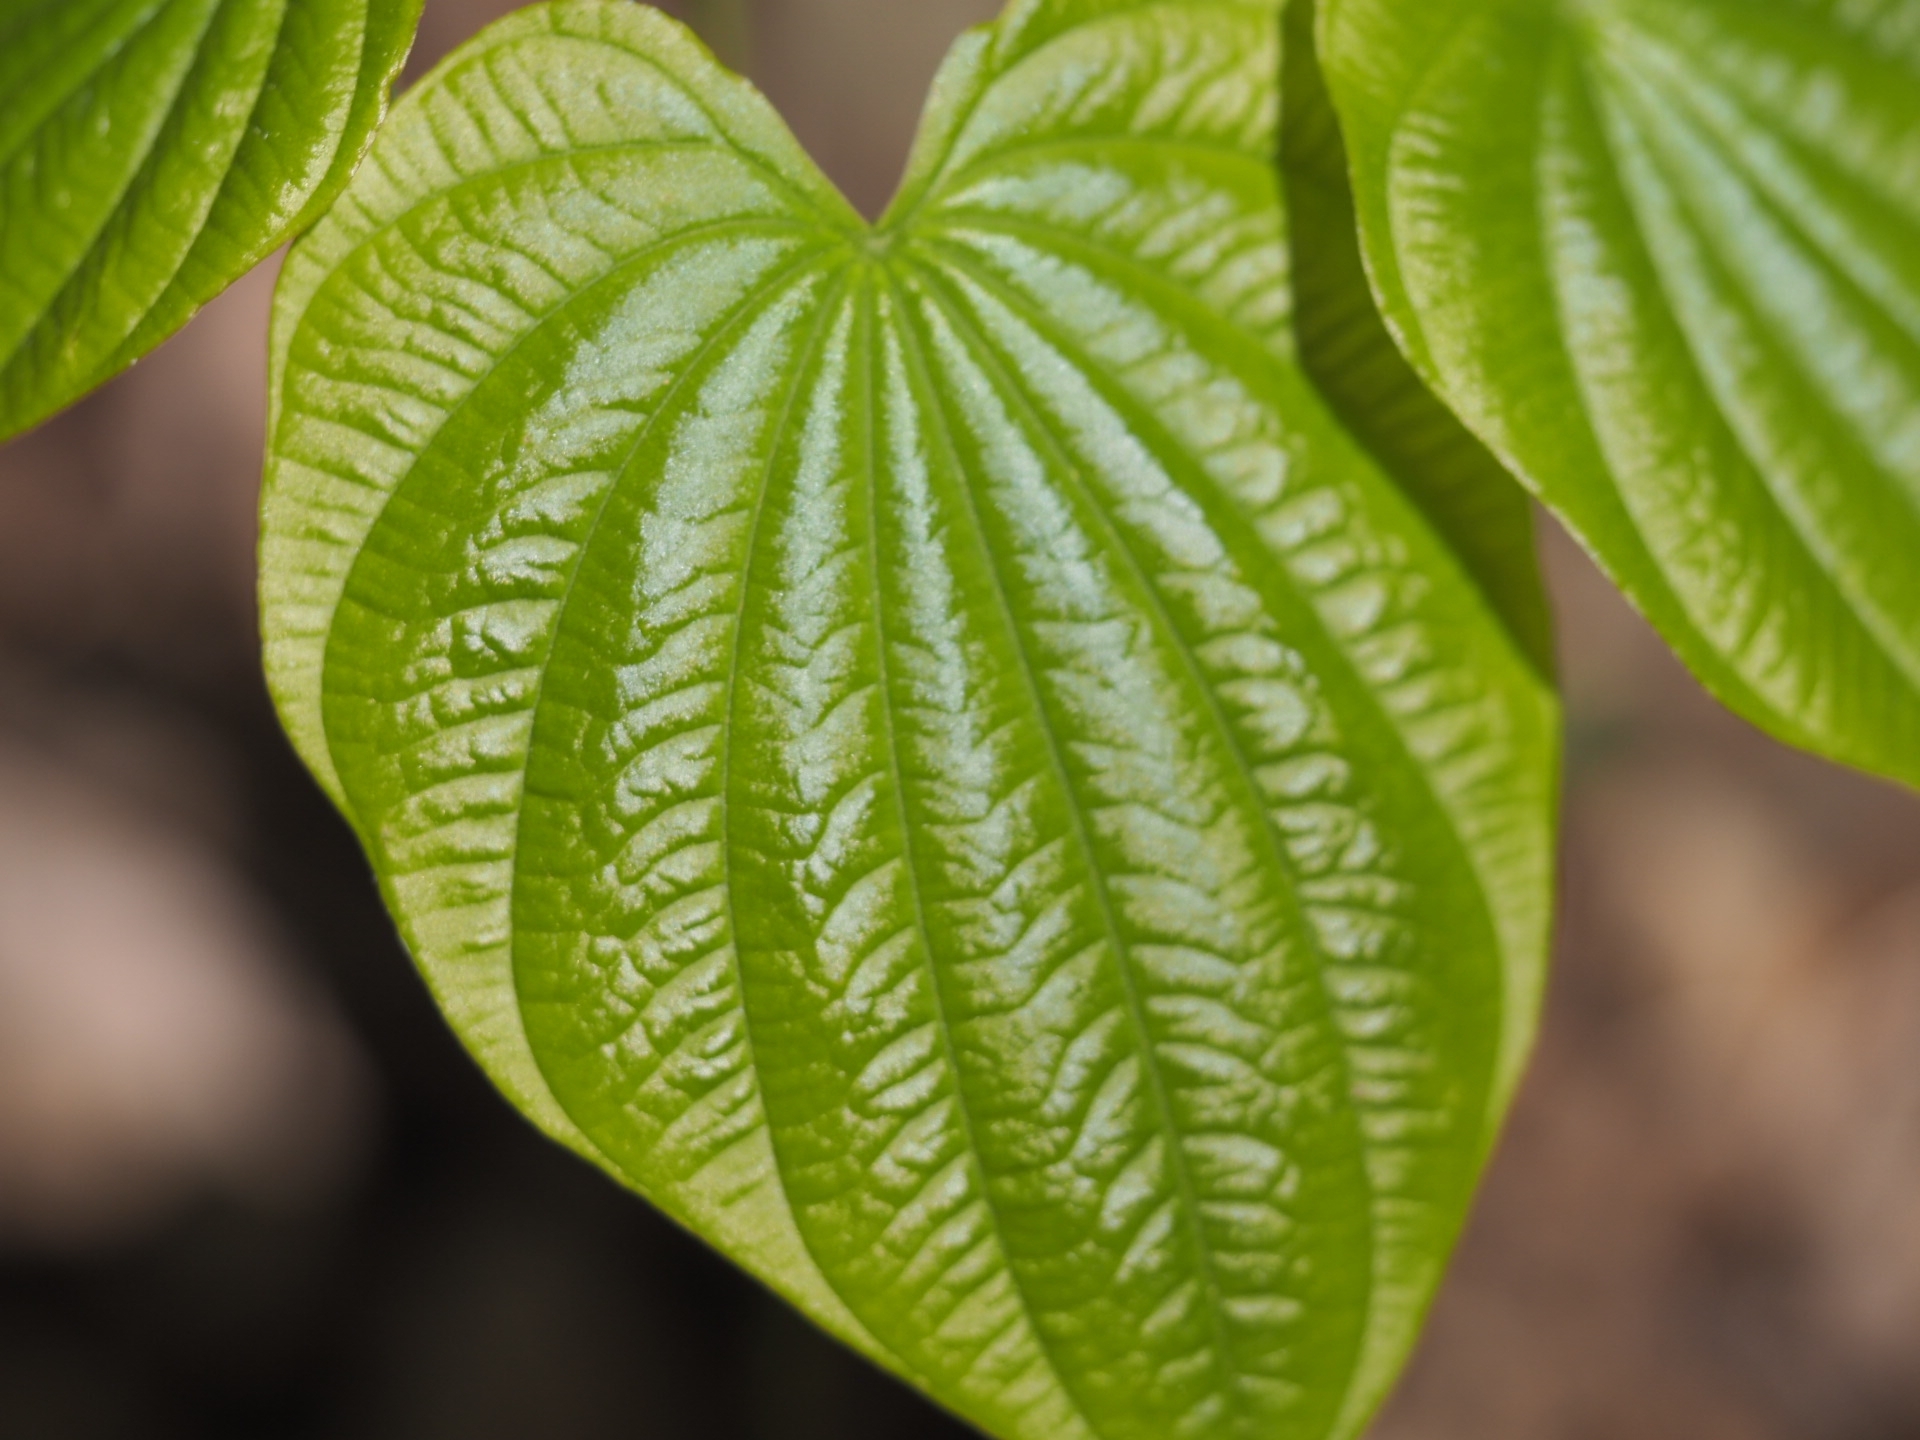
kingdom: Plantae
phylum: Tracheophyta
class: Liliopsida
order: Dioscoreales
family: Dioscoreaceae
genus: Dioscorea
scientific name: Dioscorea villosa
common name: Wild yam
